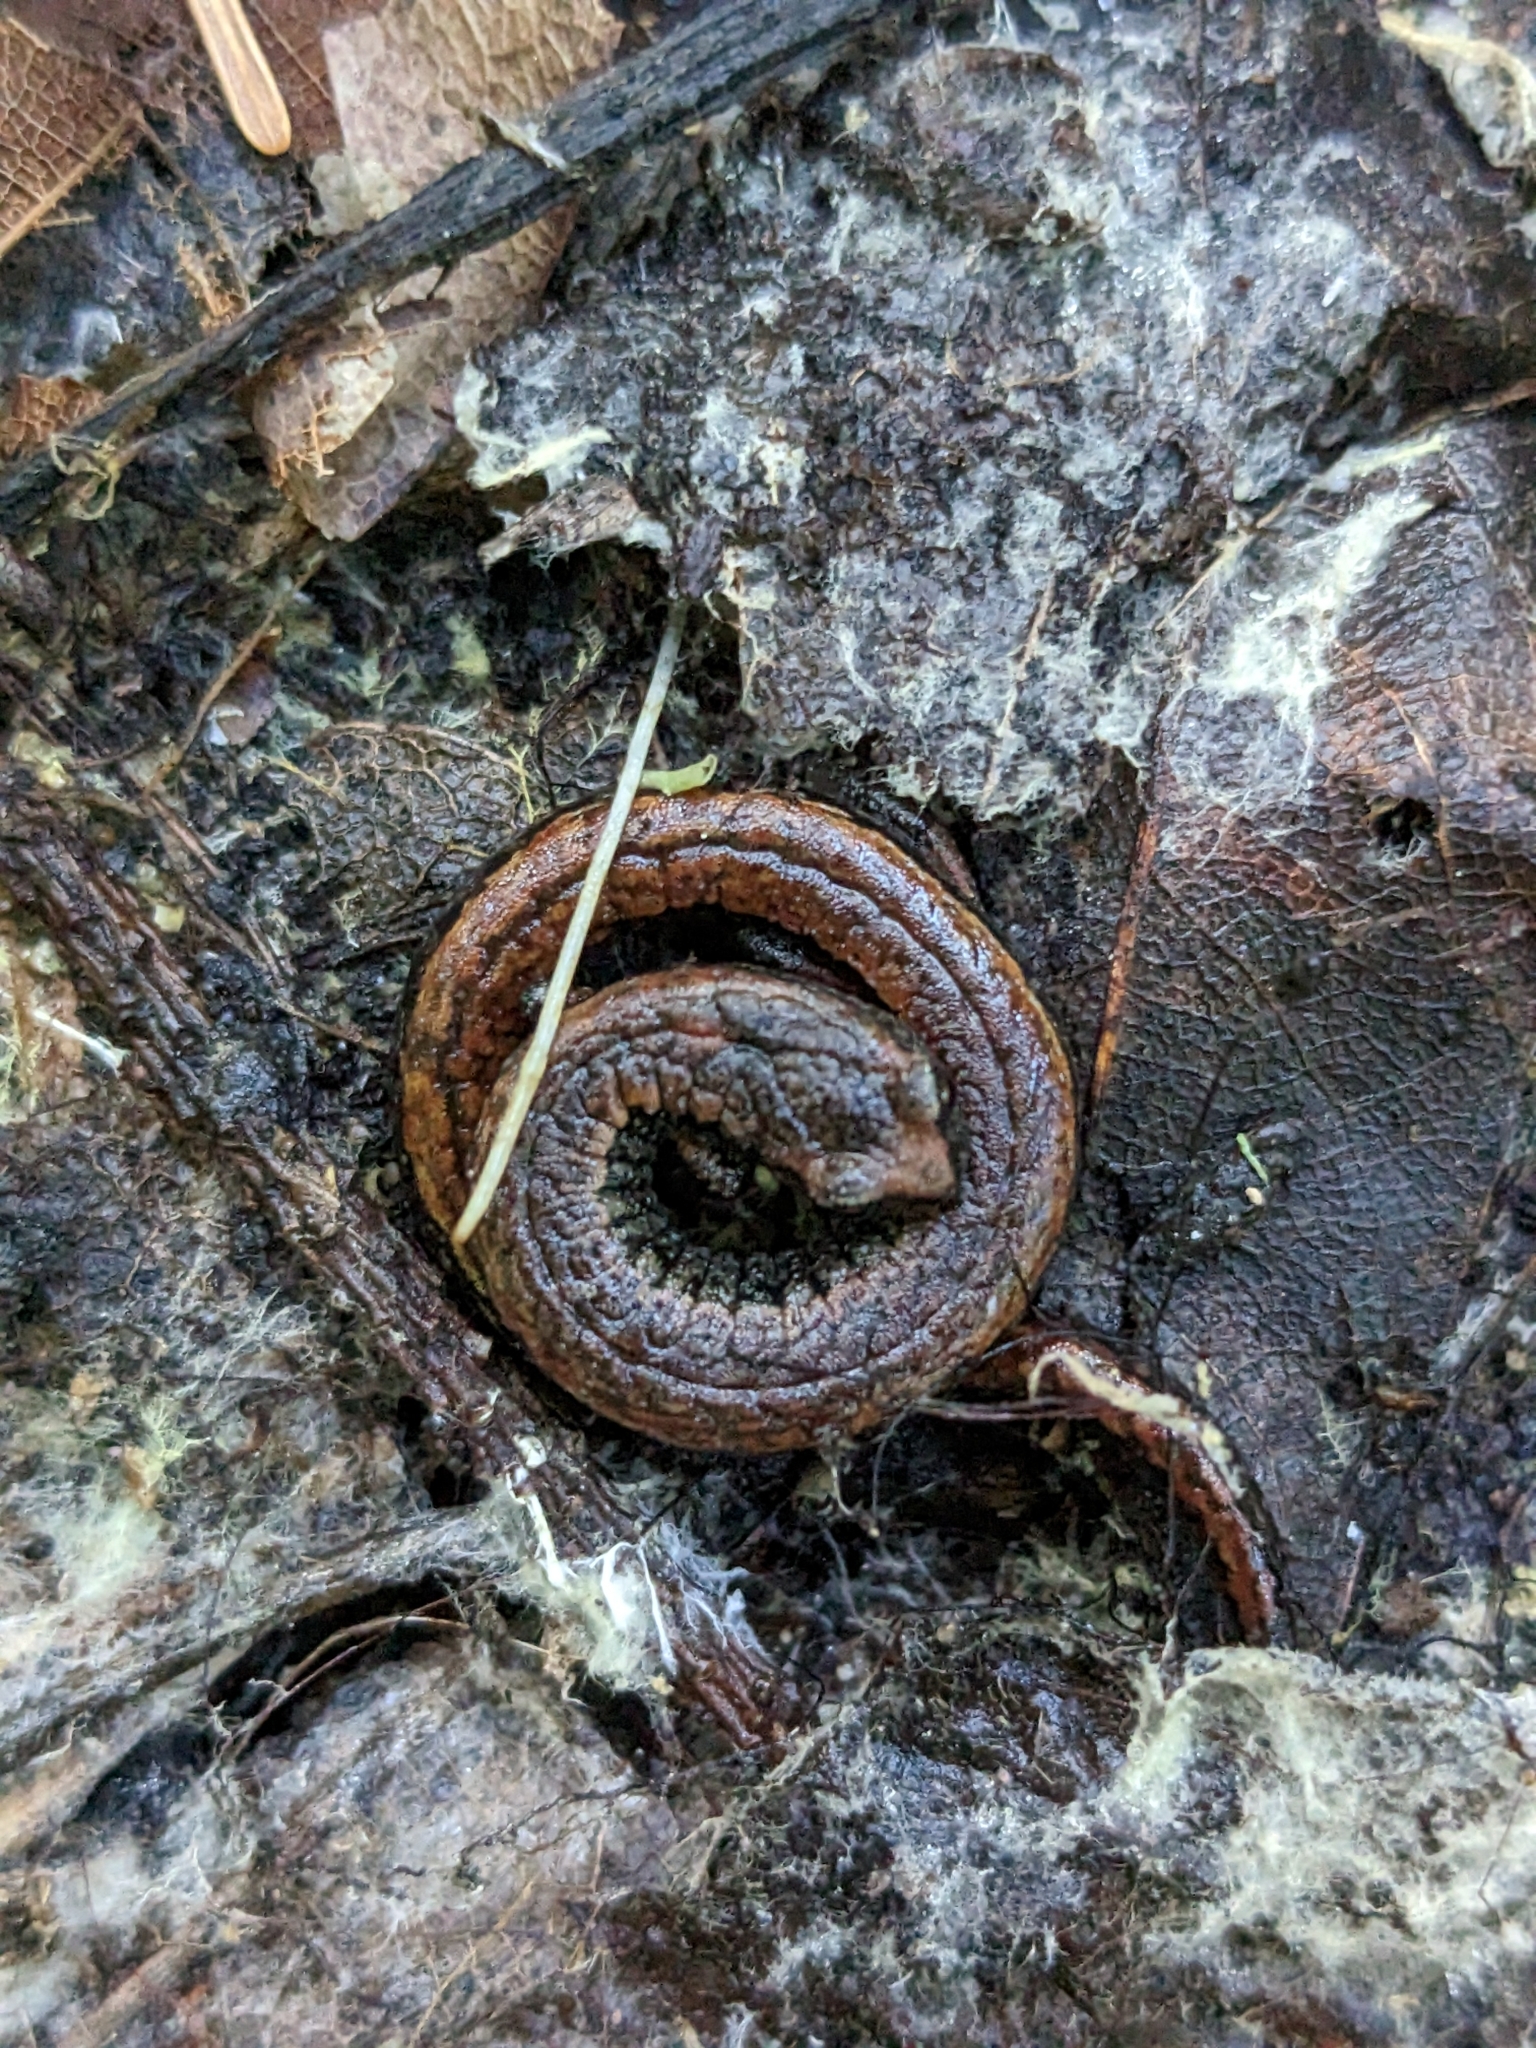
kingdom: Animalia
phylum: Chordata
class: Amphibia
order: Caudata
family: Plethodontidae
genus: Batrachoseps
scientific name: Batrachoseps attenuatus
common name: California slender salamander
